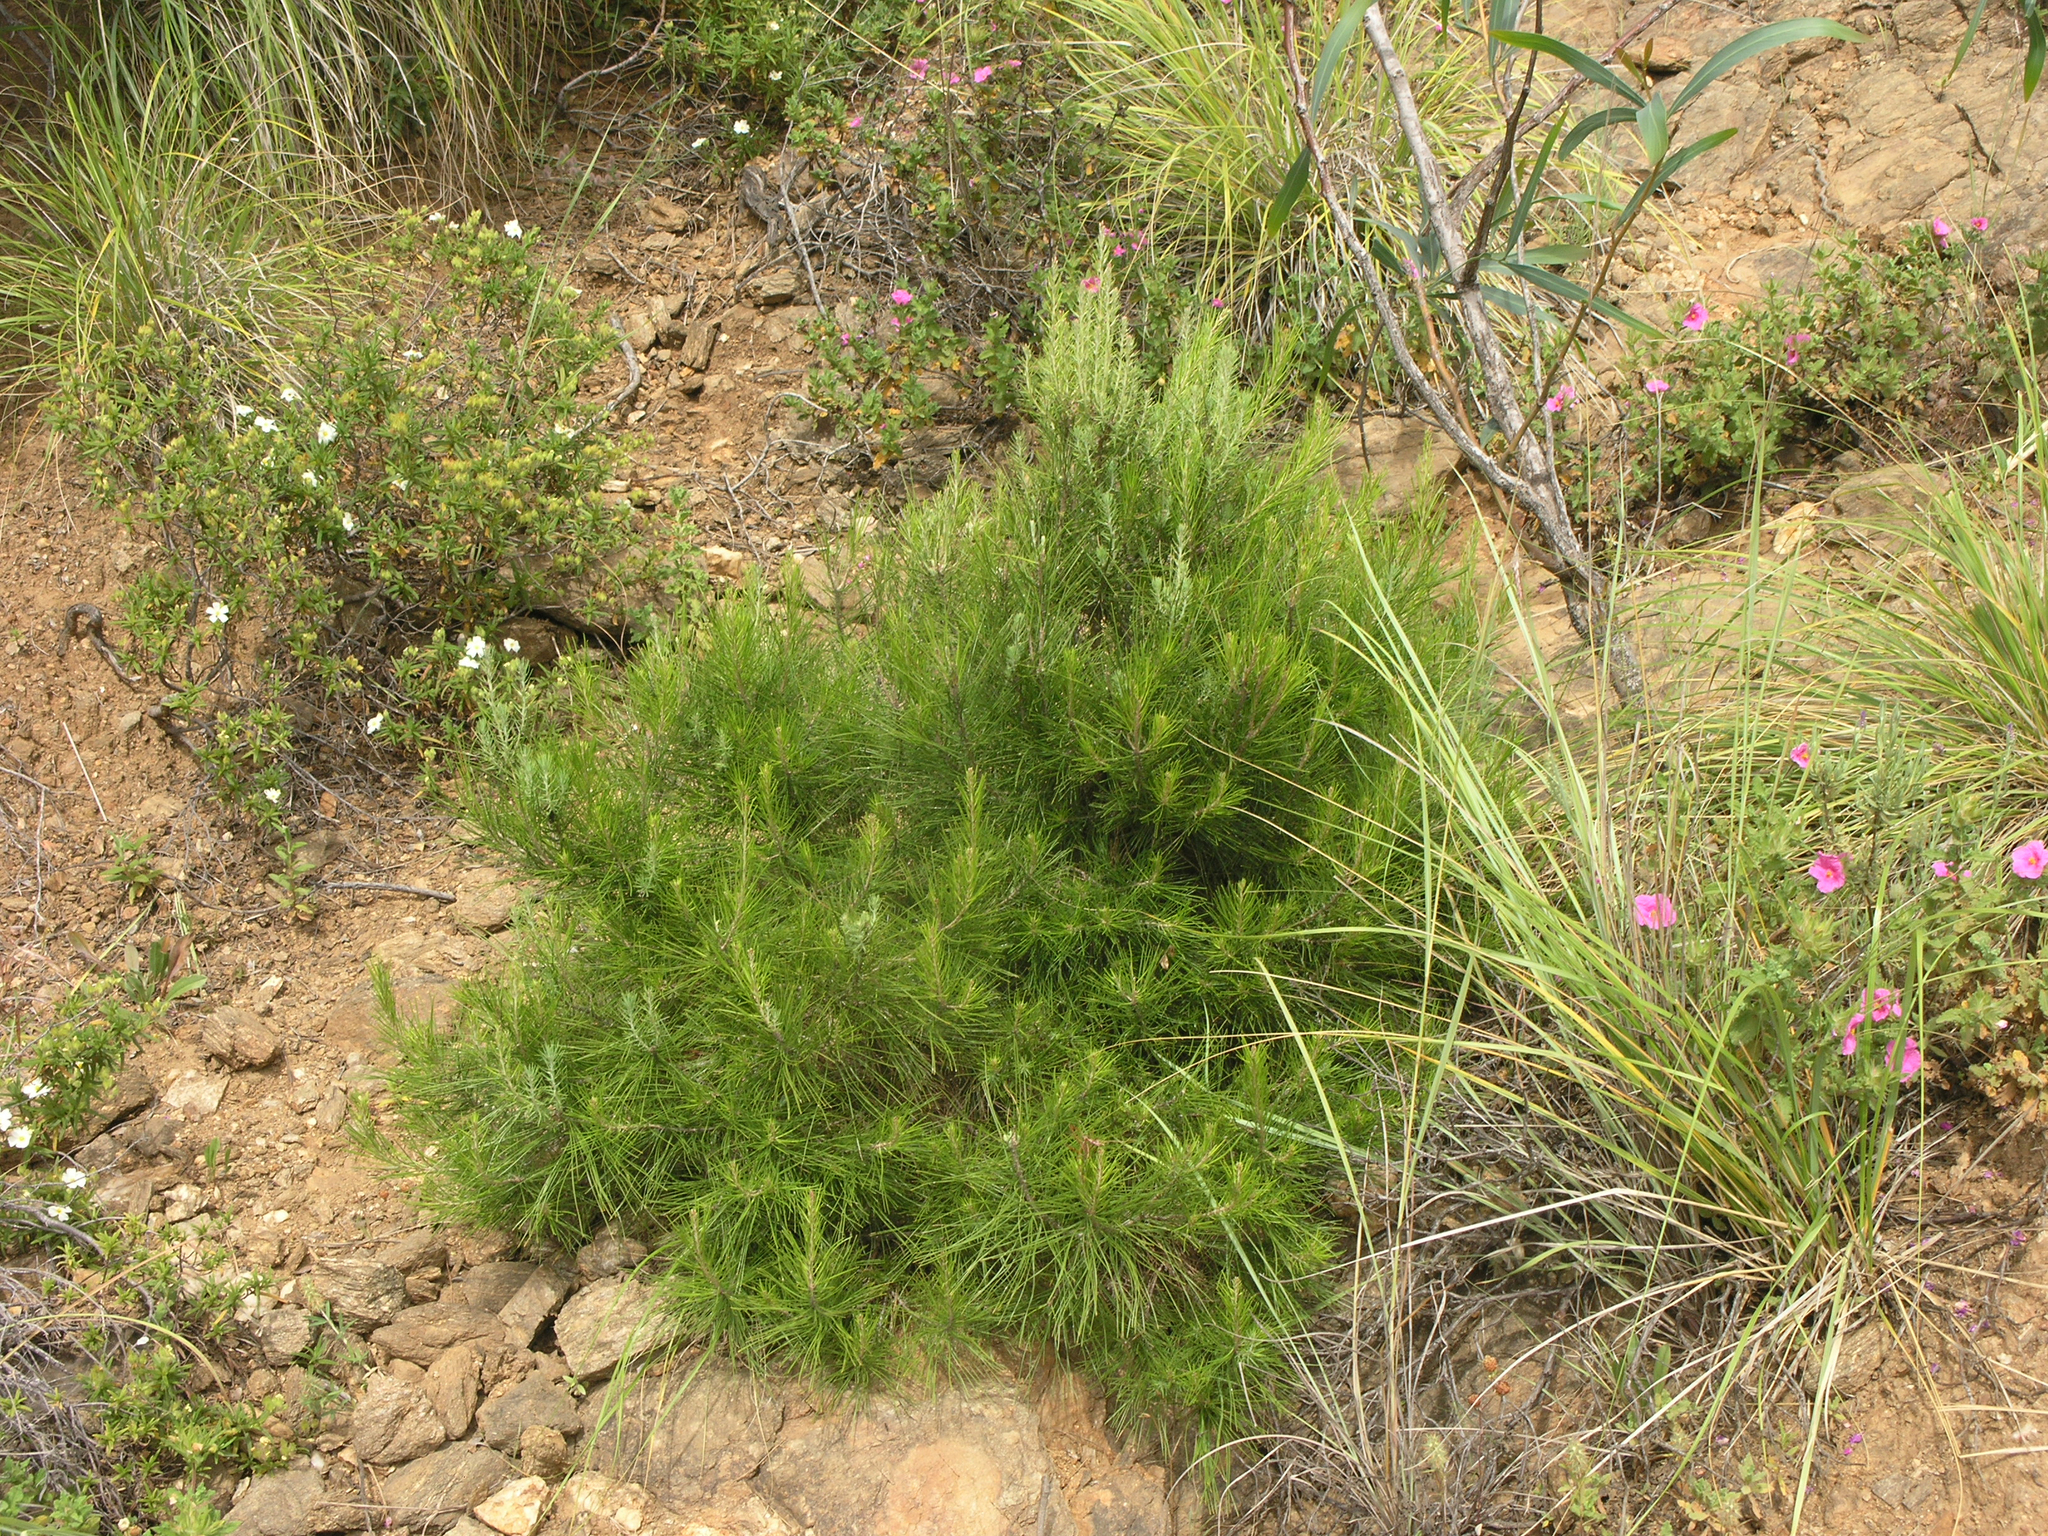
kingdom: Plantae
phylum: Tracheophyta
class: Pinopsida
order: Pinales
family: Pinaceae
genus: Pinus
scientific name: Pinus halepensis
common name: Aleppo pine
